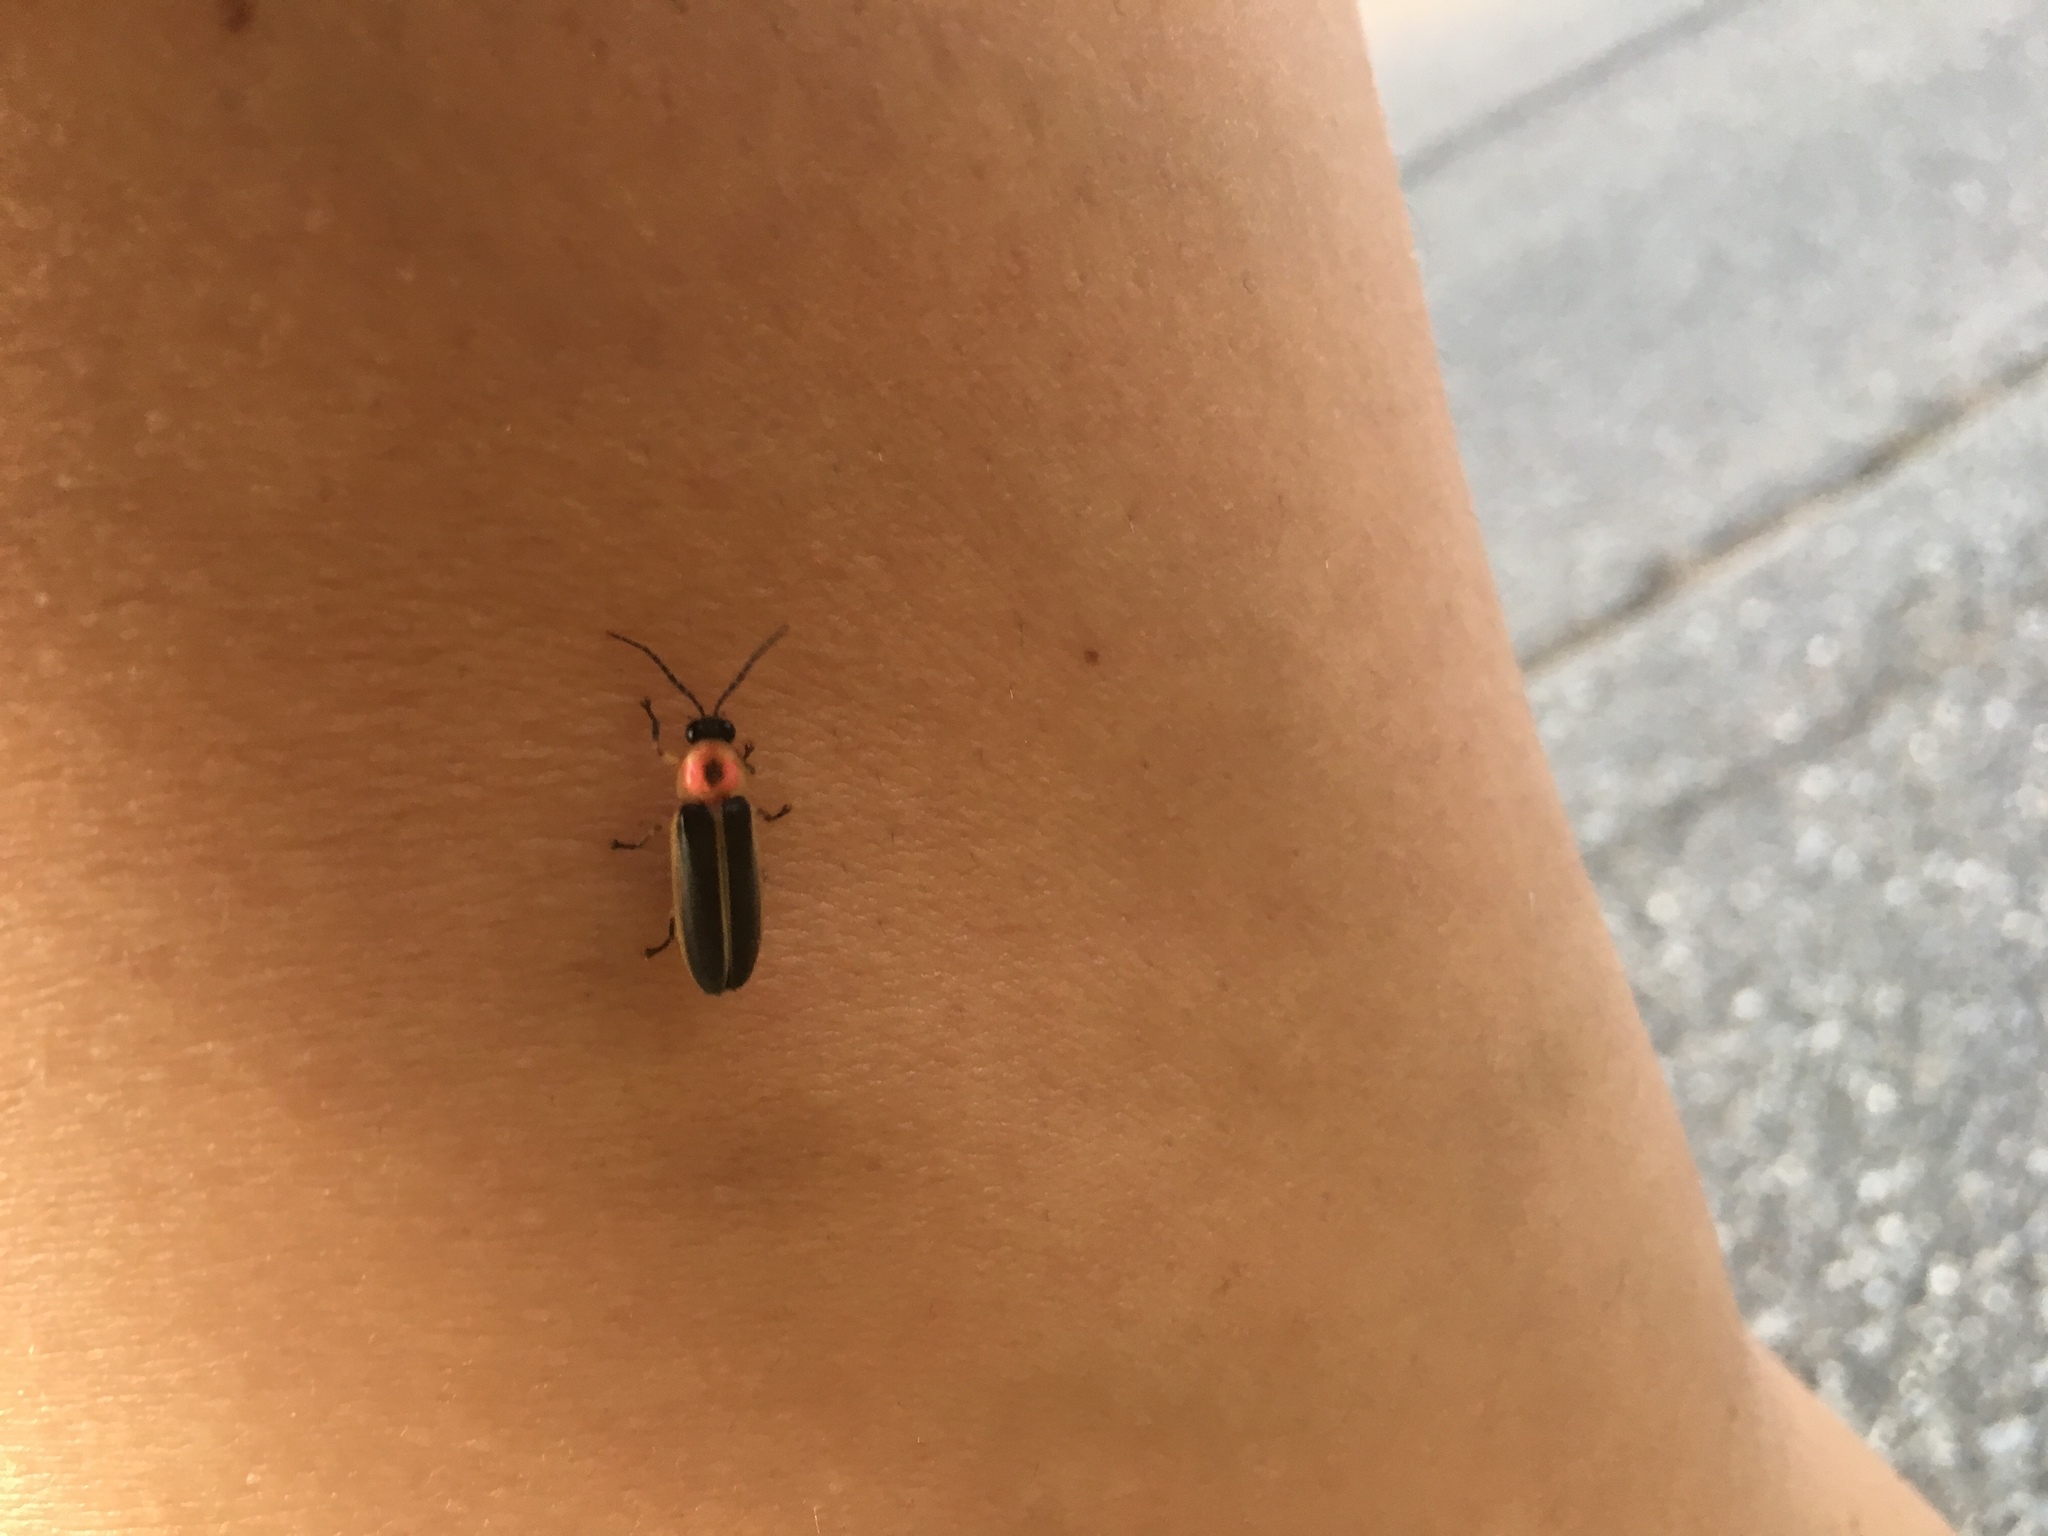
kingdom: Animalia
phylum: Arthropoda
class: Insecta
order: Coleoptera
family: Lampyridae
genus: Photinus
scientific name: Photinus pyralis
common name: Big dipper firefly
